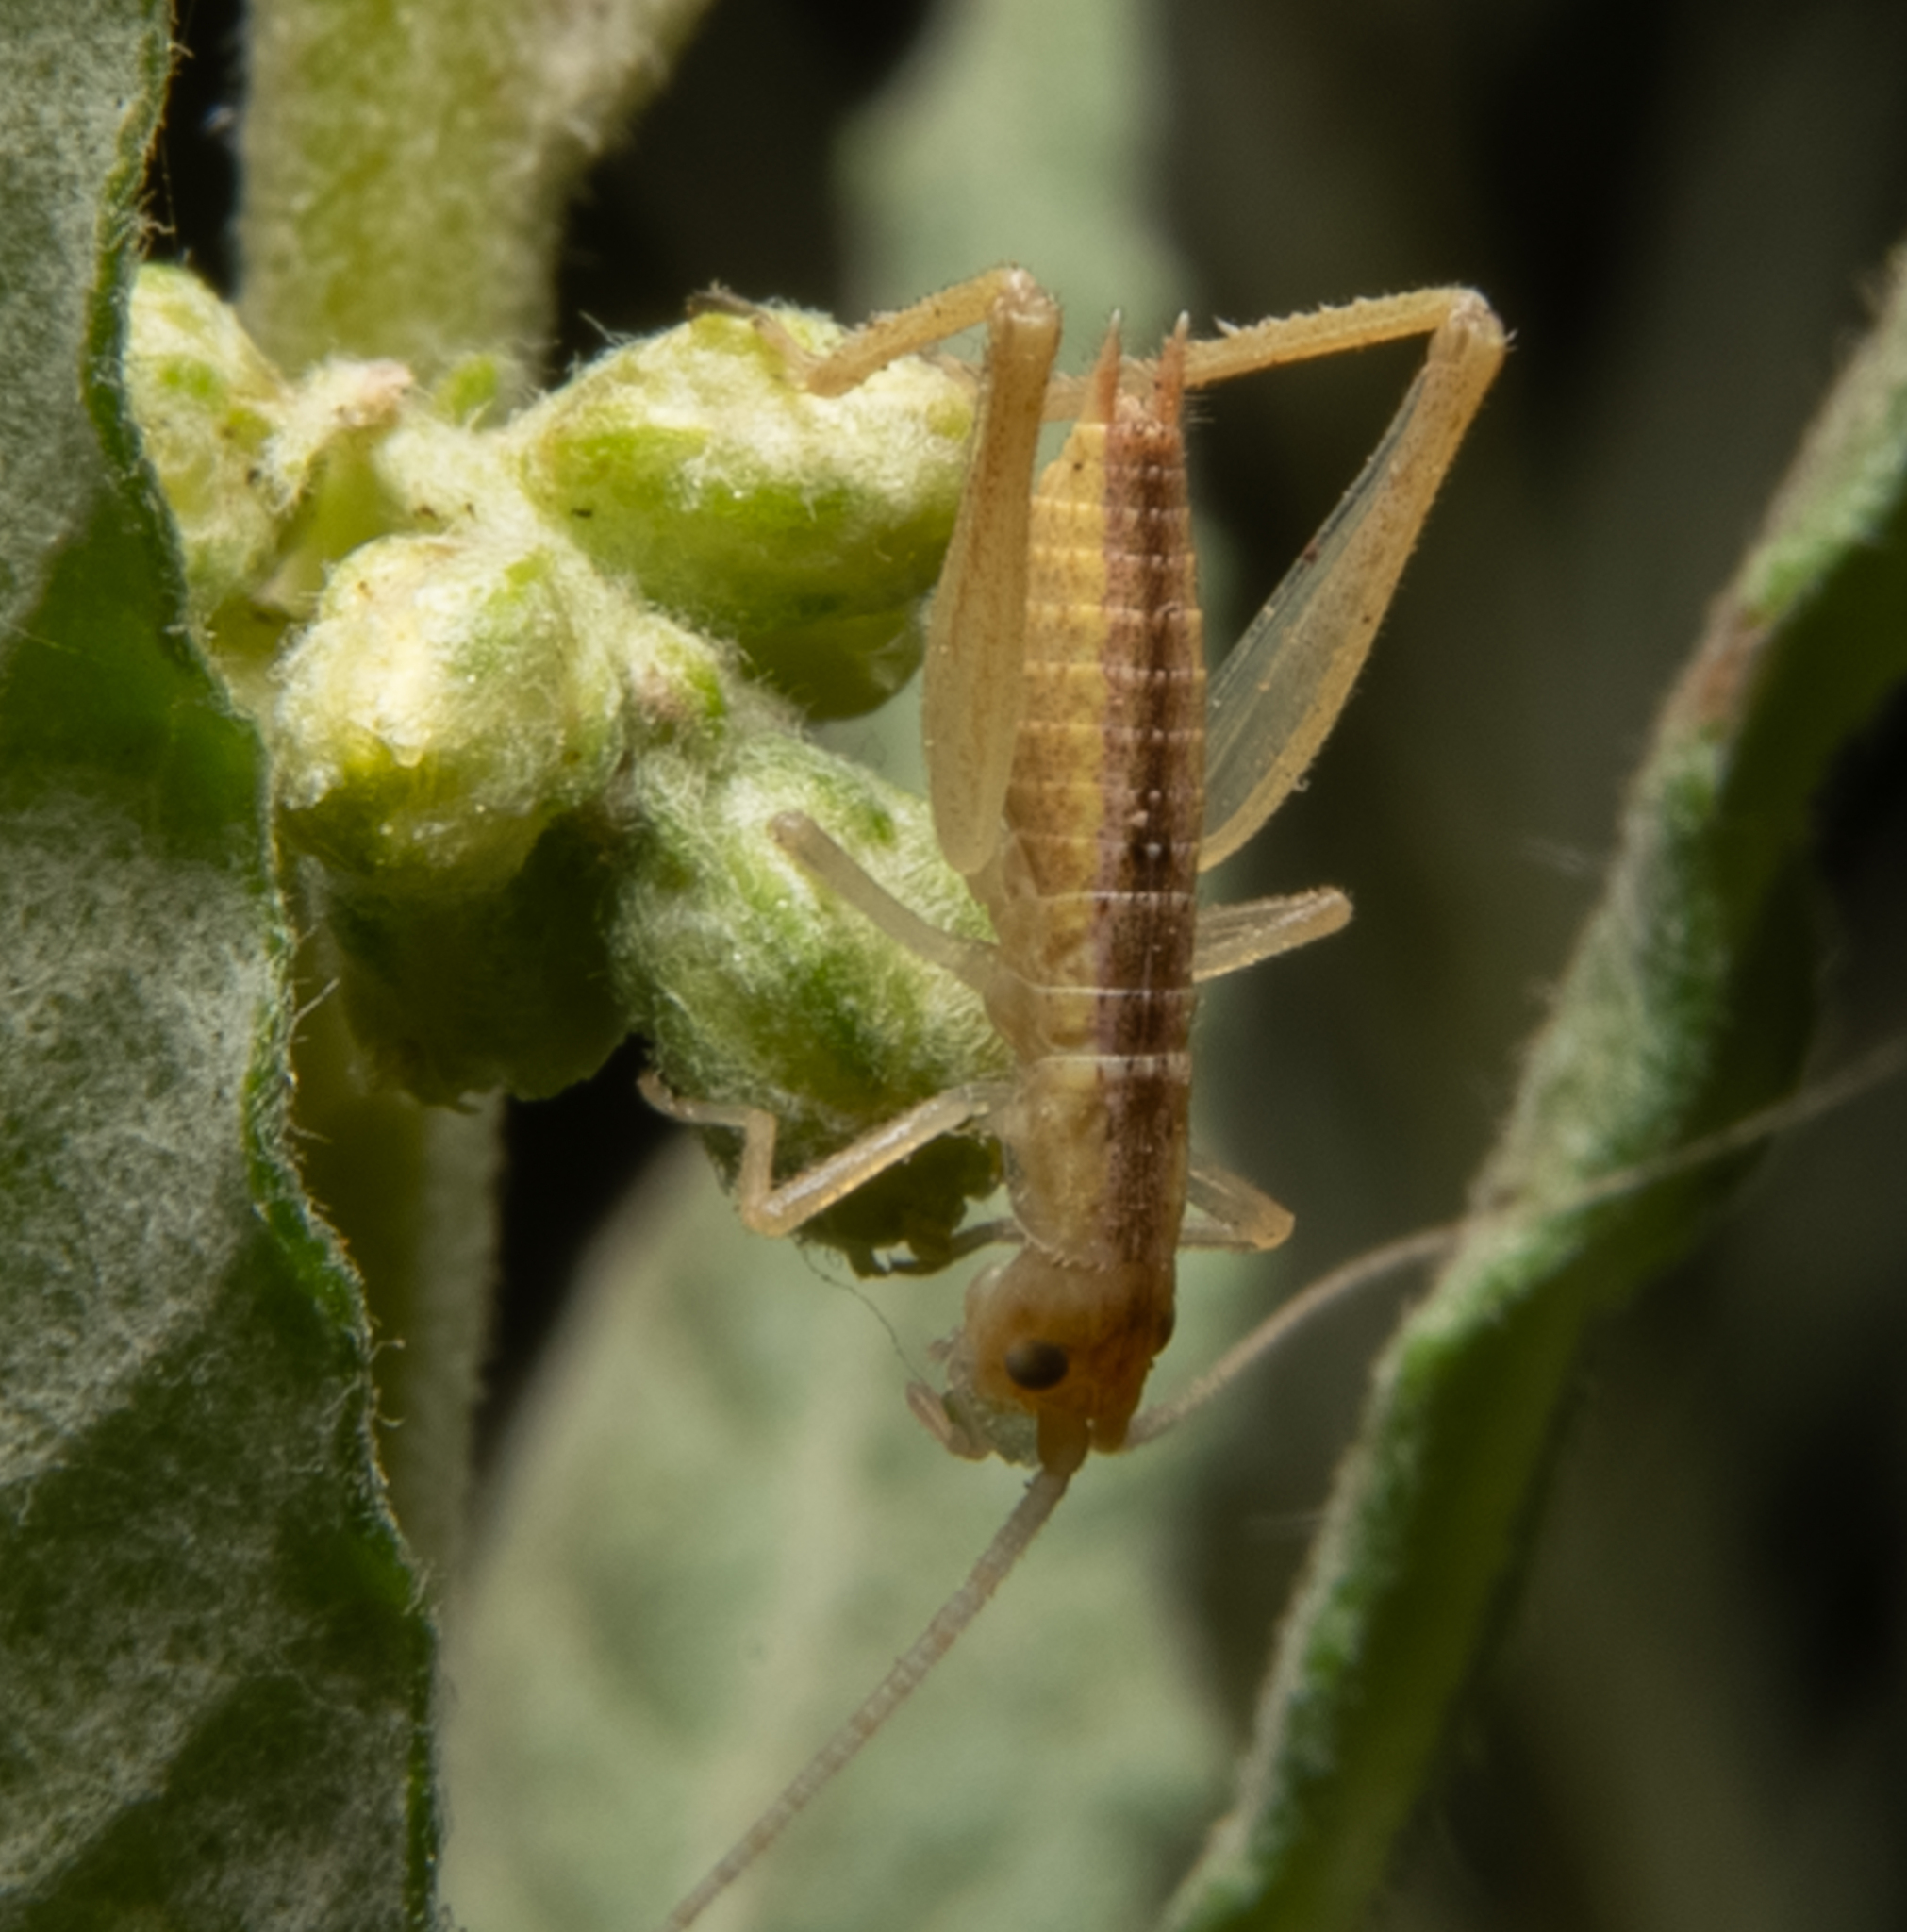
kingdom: Animalia
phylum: Arthropoda
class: Insecta
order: Orthoptera
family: Gryllidae
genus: Oecanthus
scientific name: Oecanthus californicus
